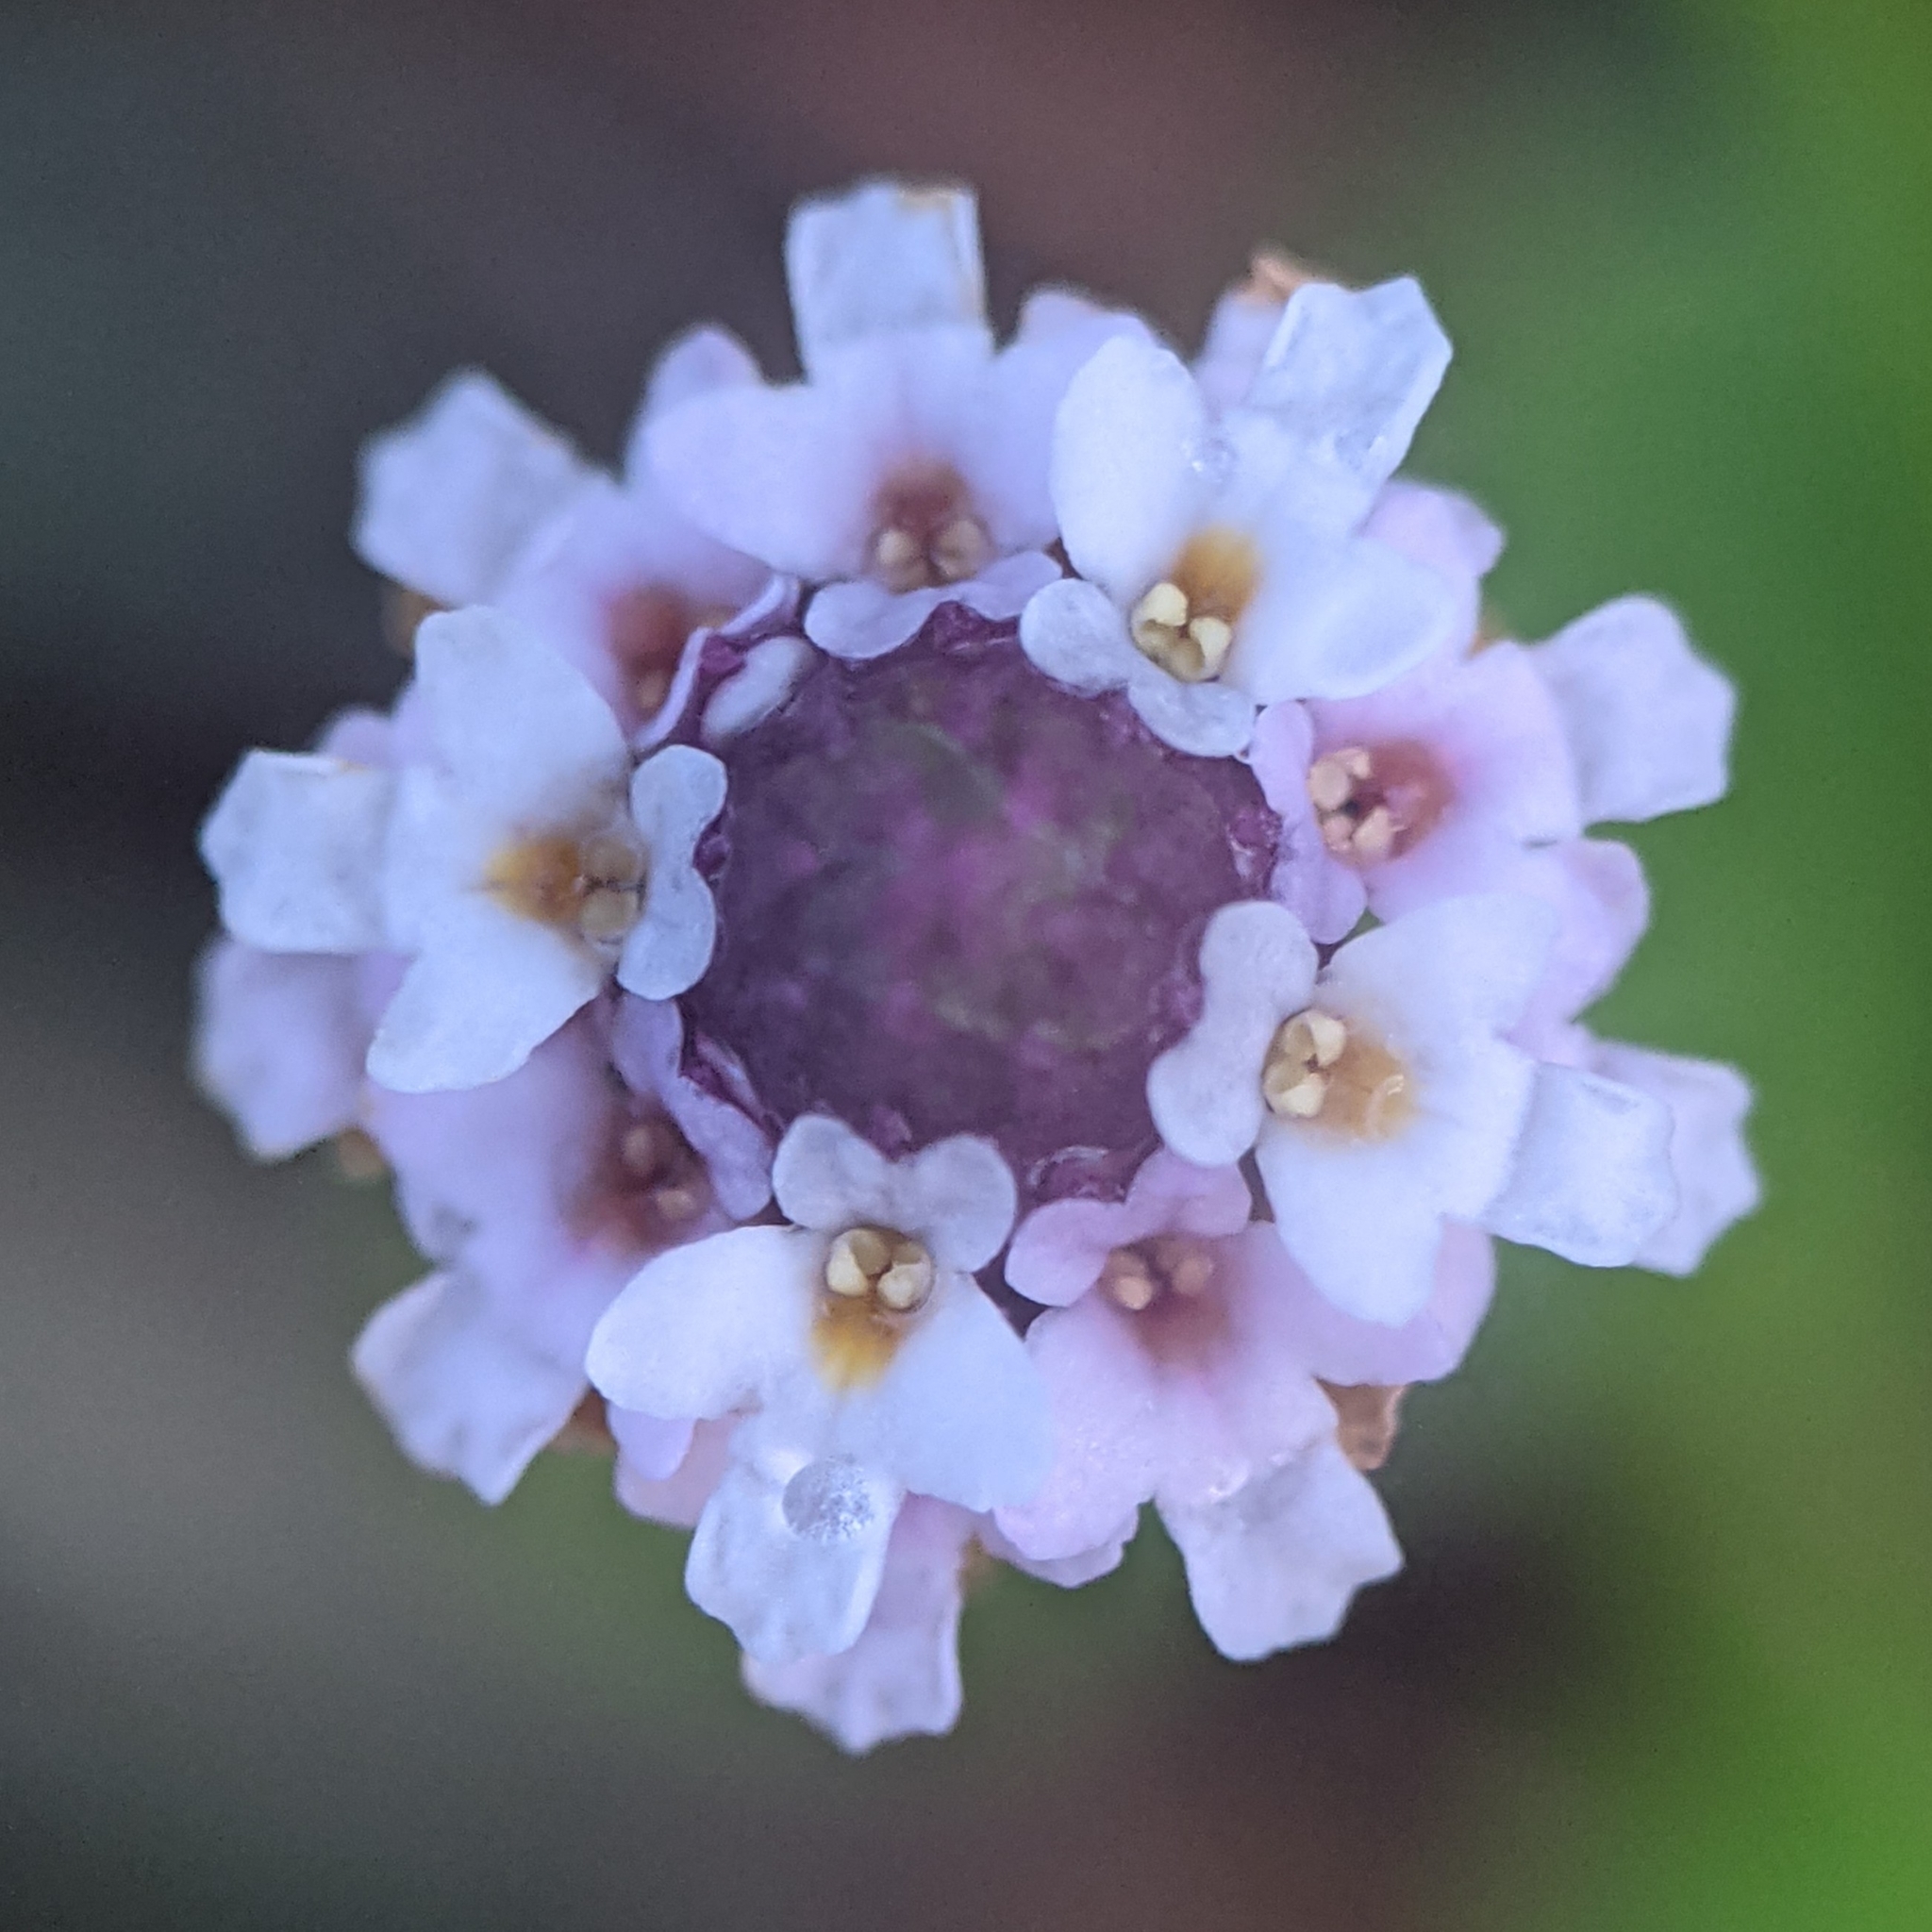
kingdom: Plantae
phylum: Tracheophyta
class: Magnoliopsida
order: Lamiales
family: Verbenaceae
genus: Phyla
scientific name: Phyla nodiflora
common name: Frogfruit
